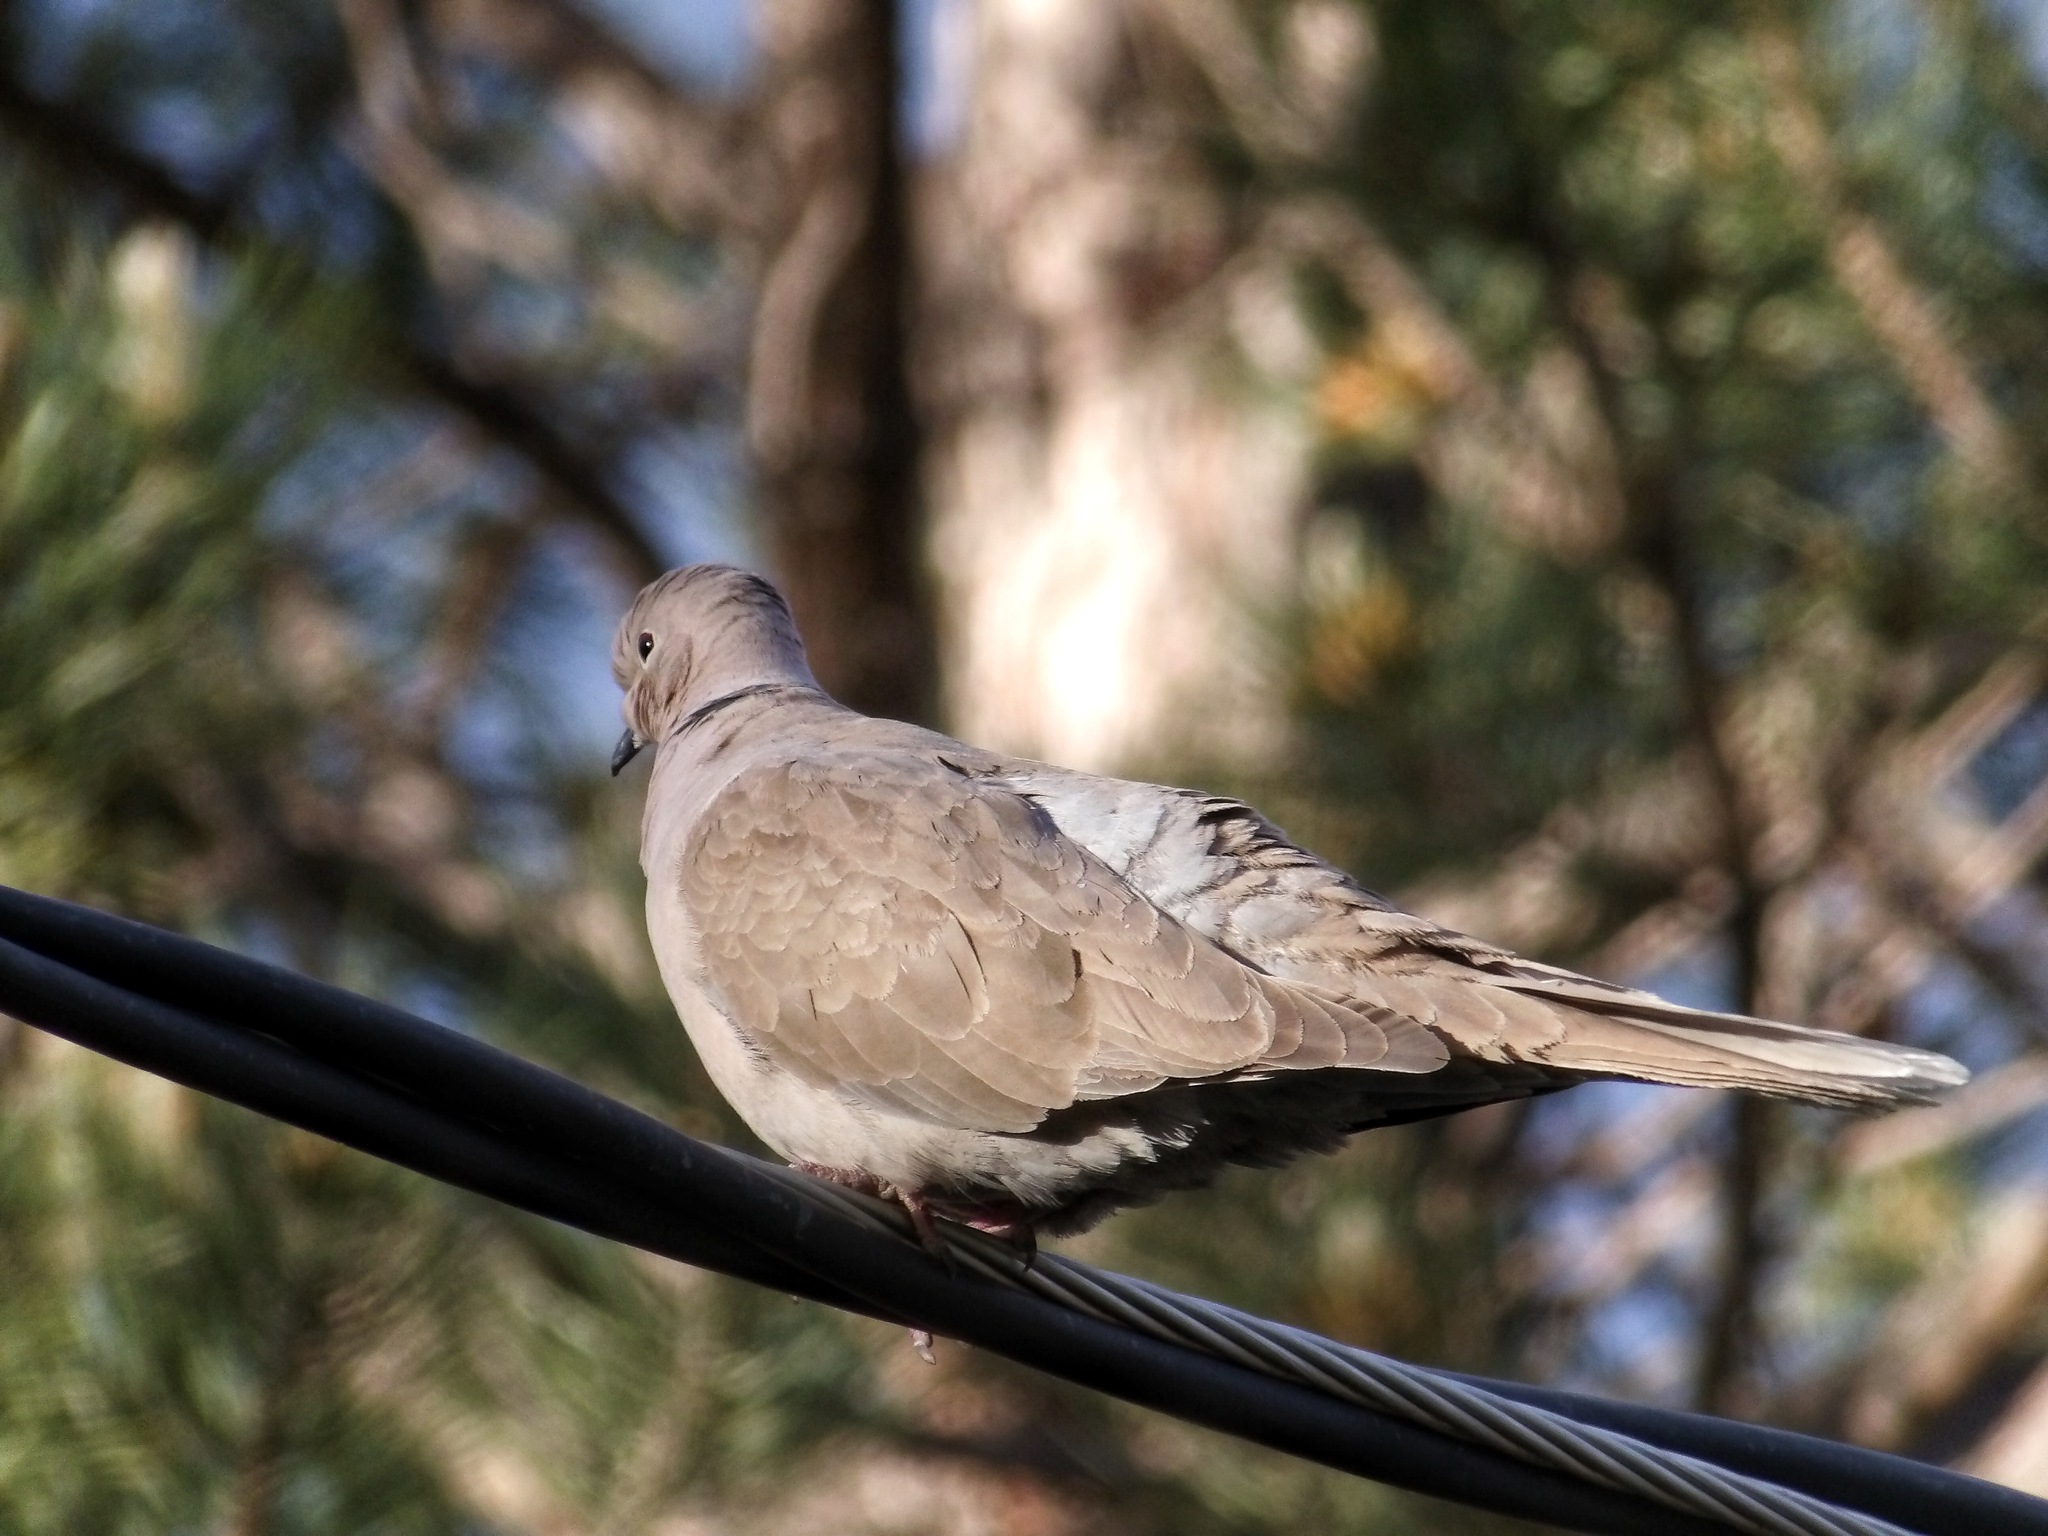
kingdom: Animalia
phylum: Chordata
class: Aves
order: Columbiformes
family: Columbidae
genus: Streptopelia
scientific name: Streptopelia decaocto
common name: Eurasian collared dove
